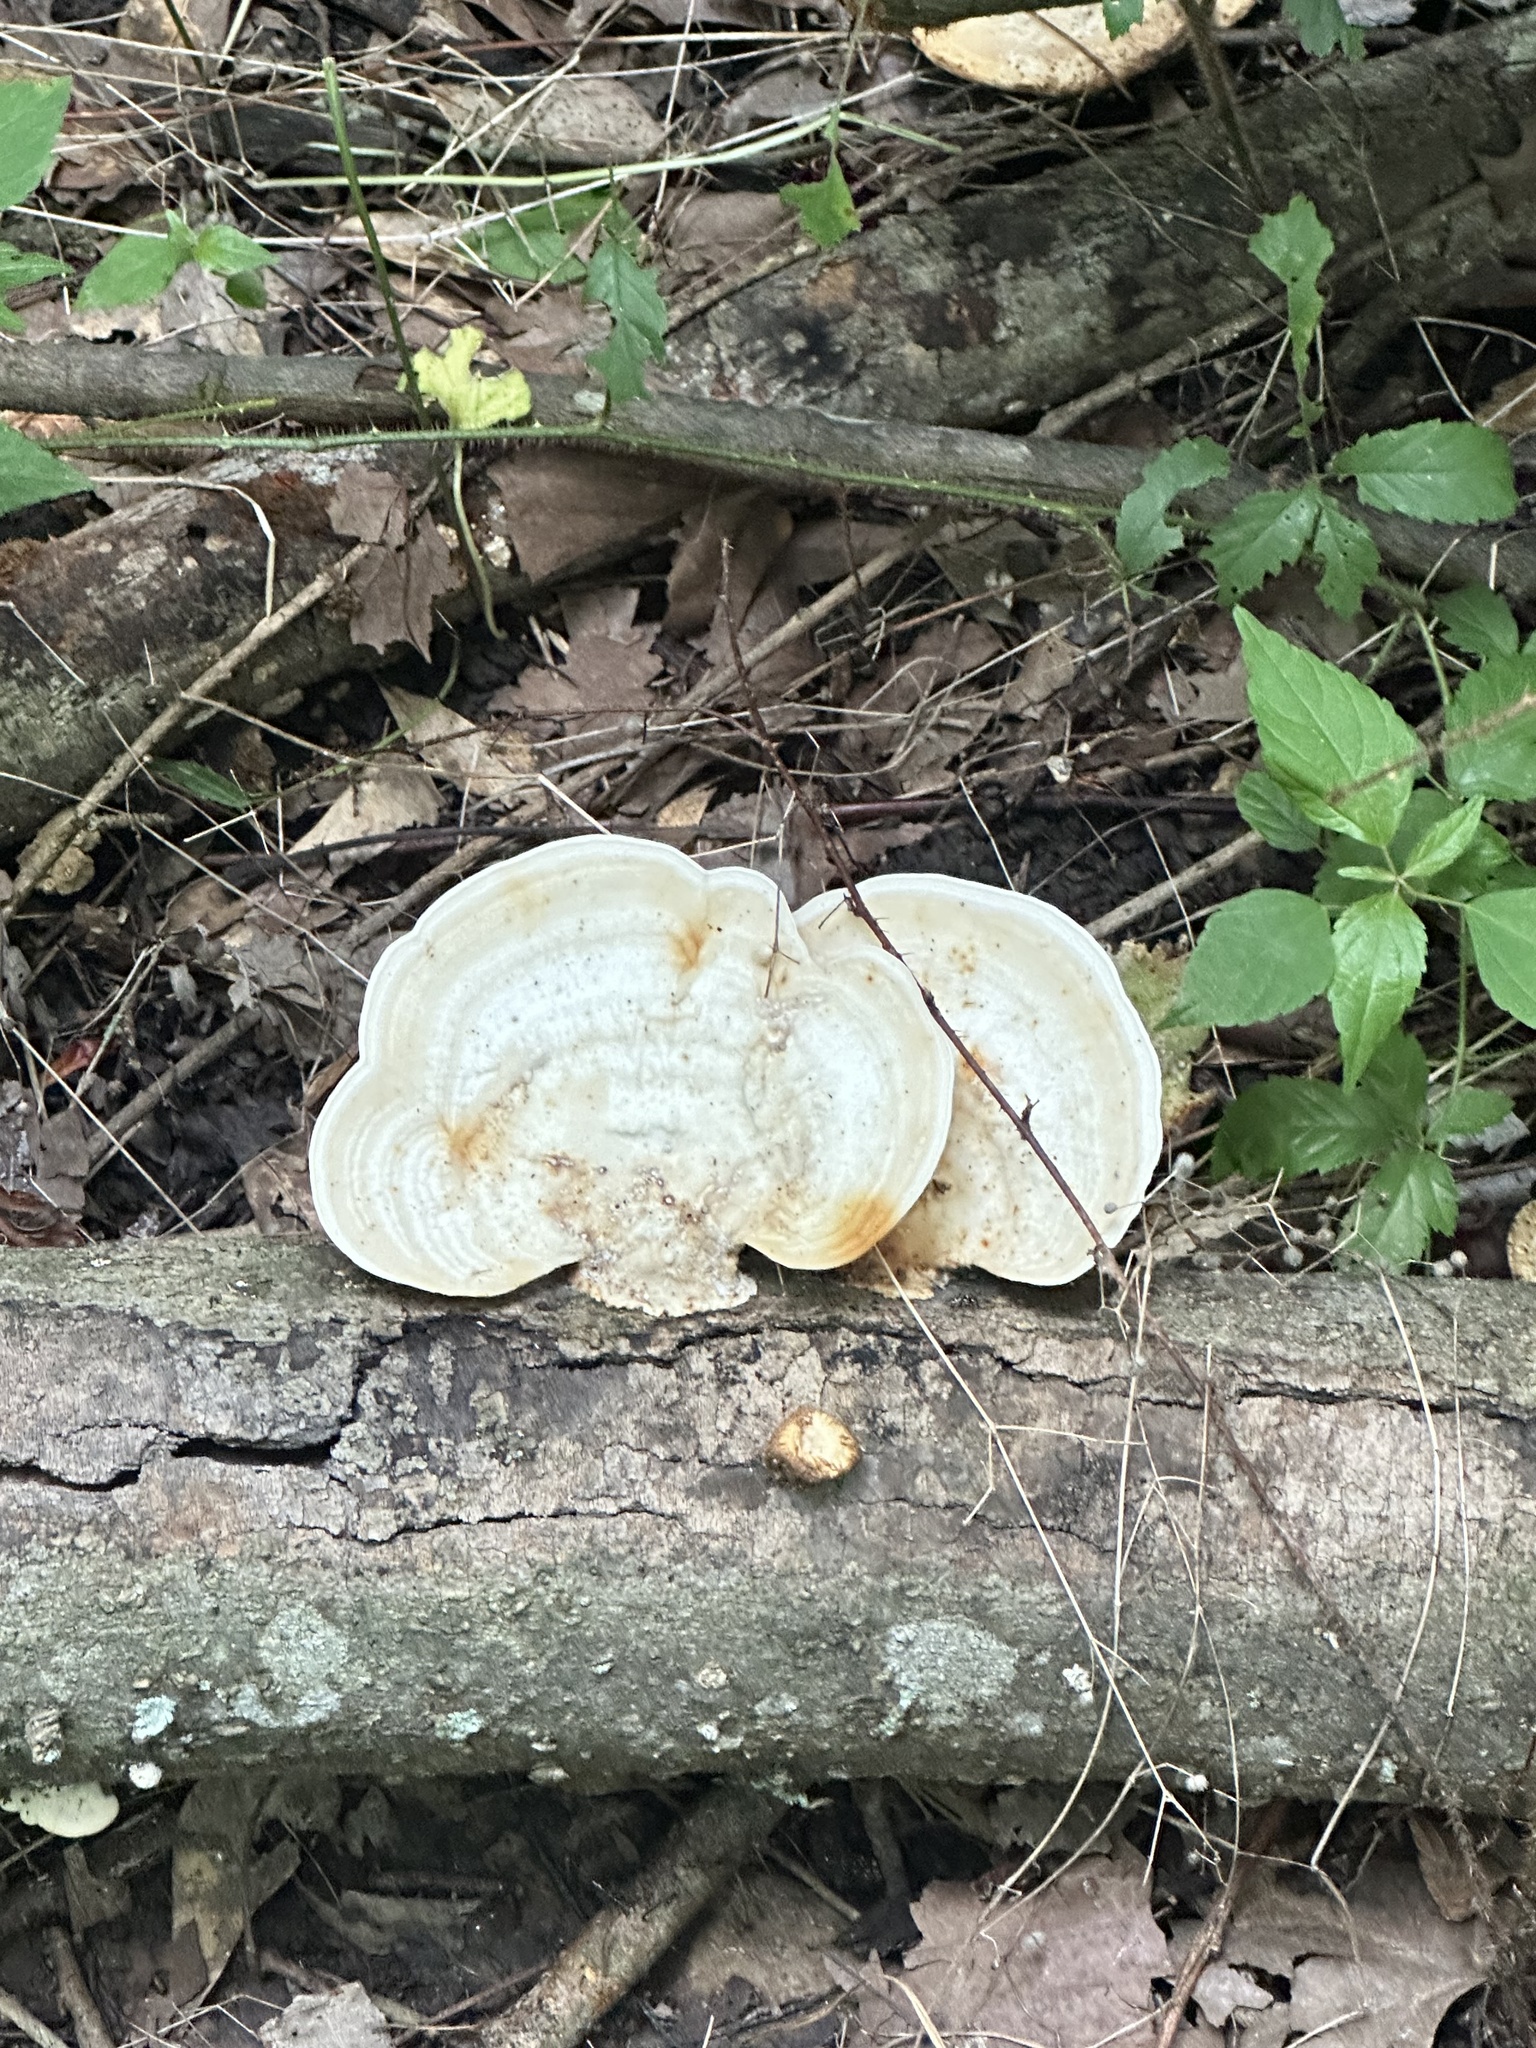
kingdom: Fungi
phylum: Basidiomycota
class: Agaricomycetes
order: Polyporales
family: Polyporaceae
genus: Trametes
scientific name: Trametes
